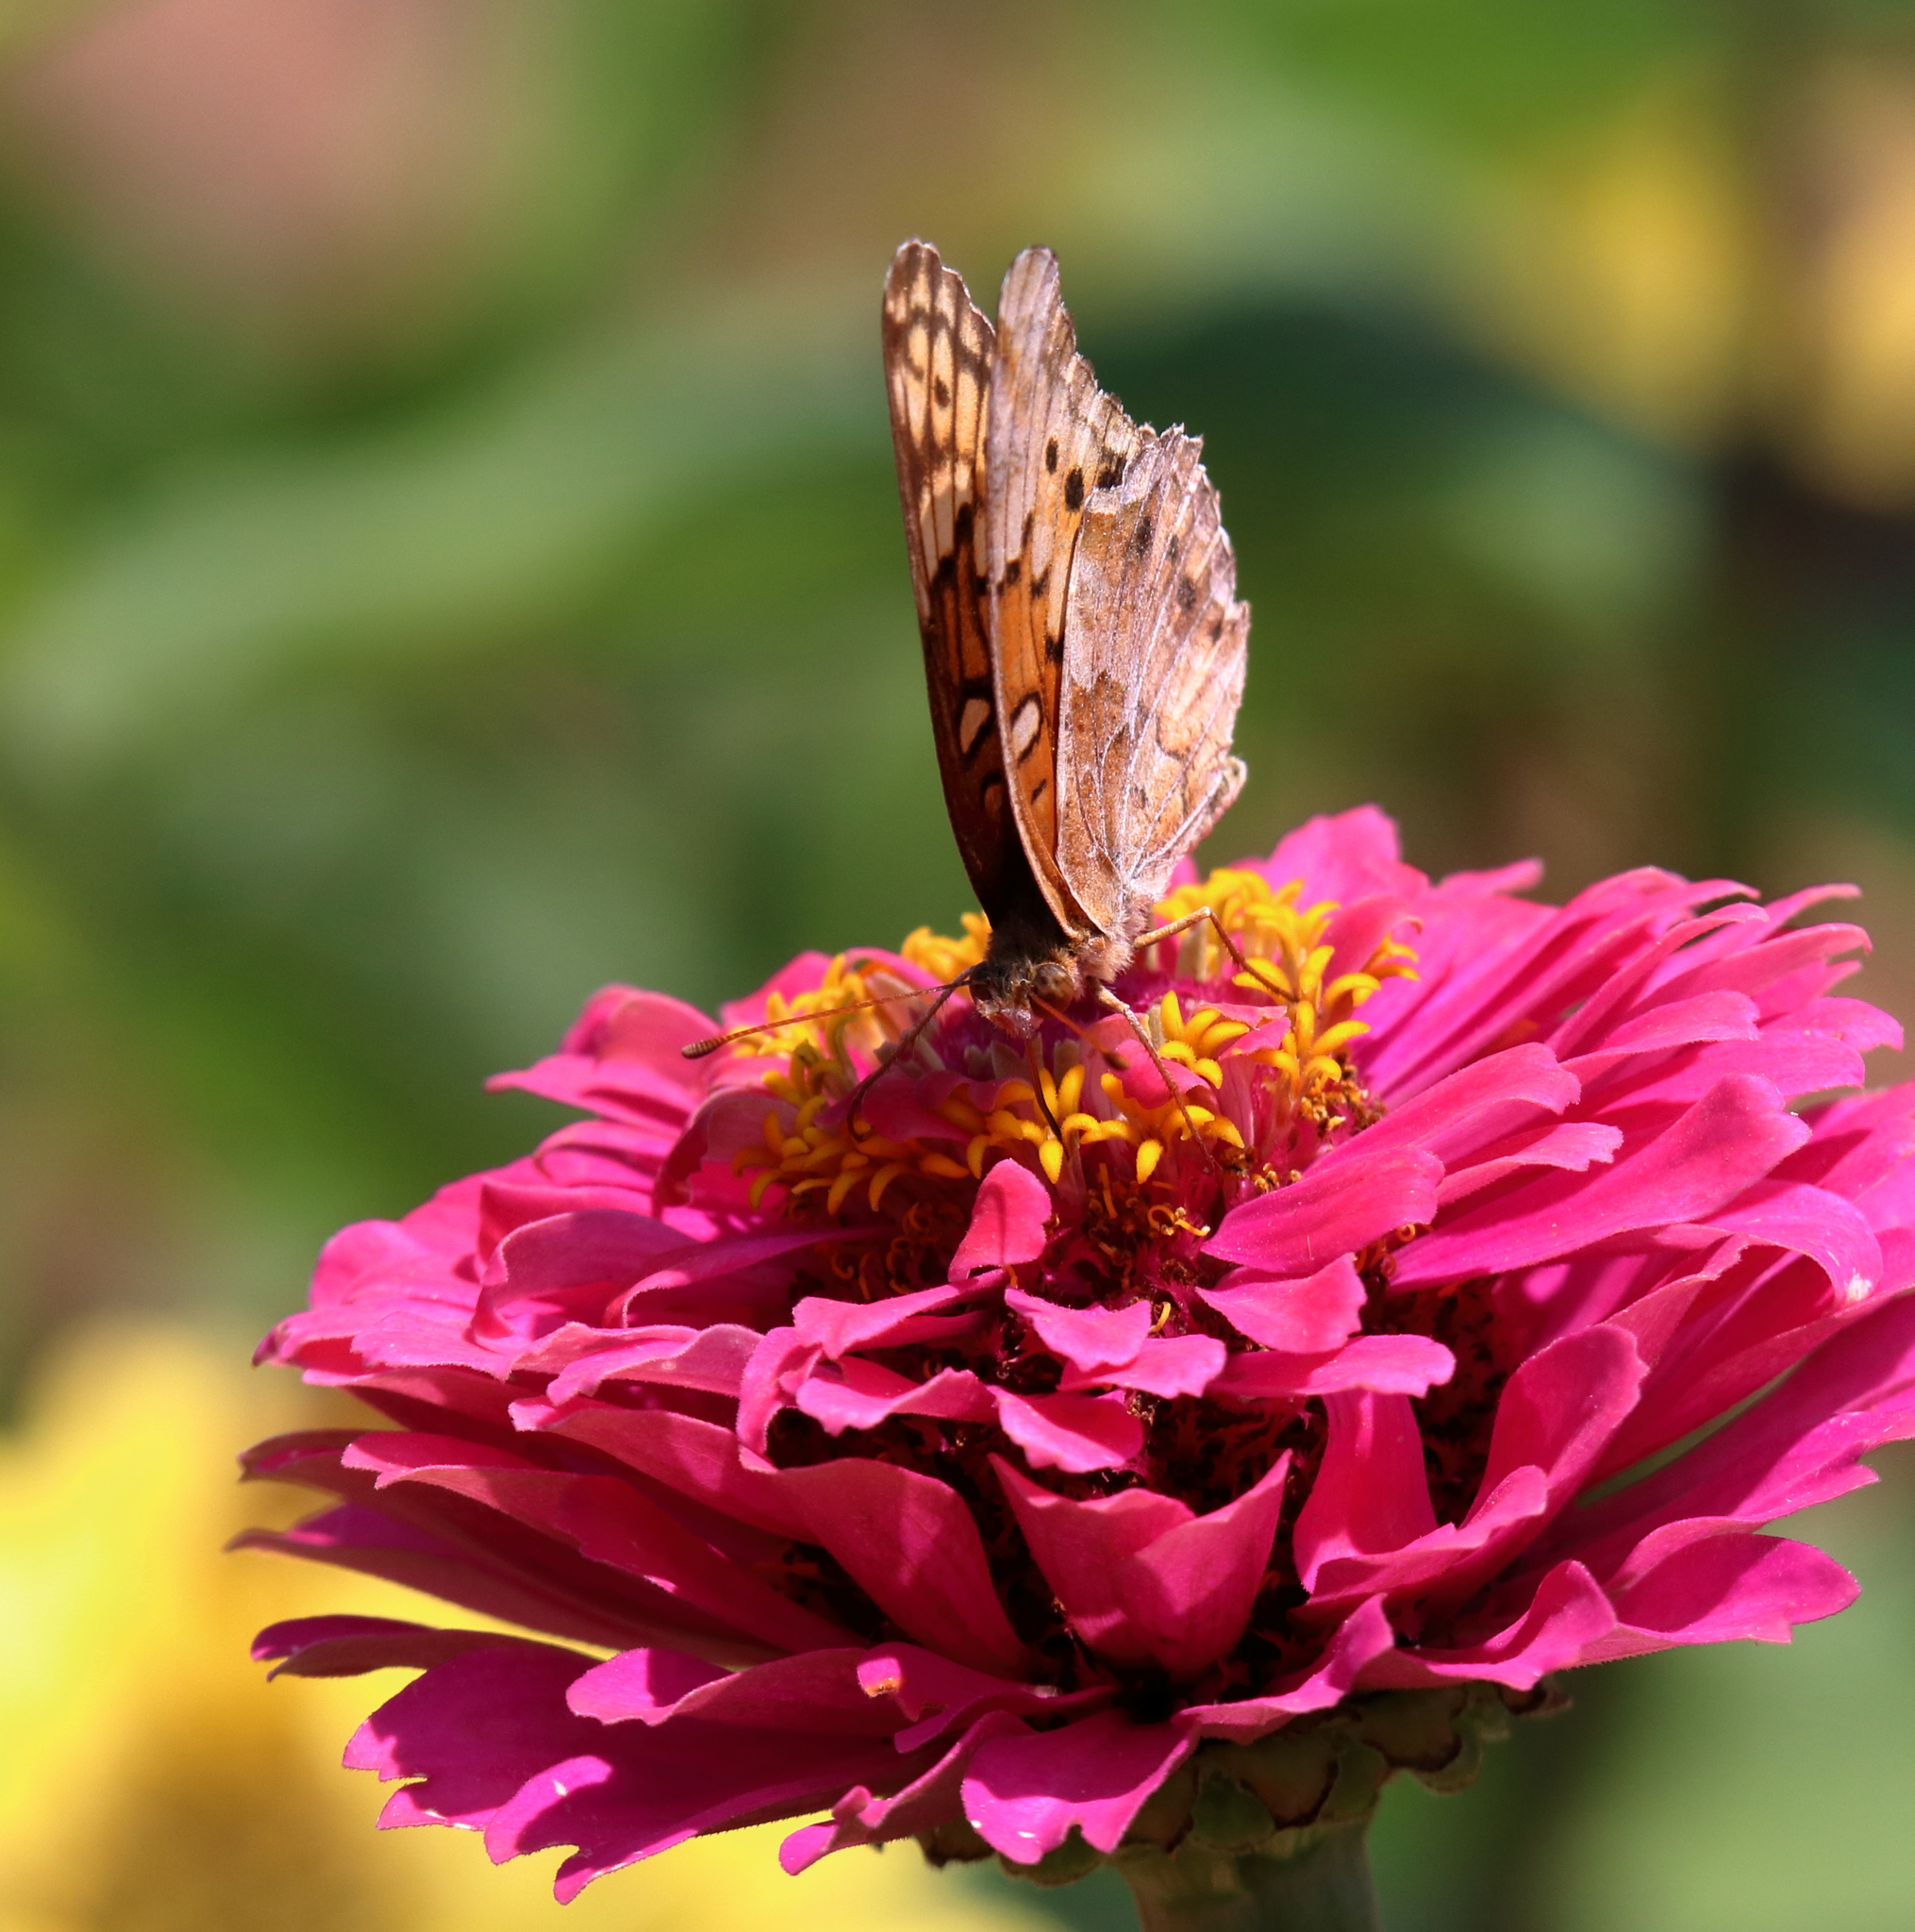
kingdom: Animalia
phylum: Arthropoda
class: Insecta
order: Lepidoptera
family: Nymphalidae
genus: Euptoieta
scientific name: Euptoieta claudia
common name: Variegated fritillary
